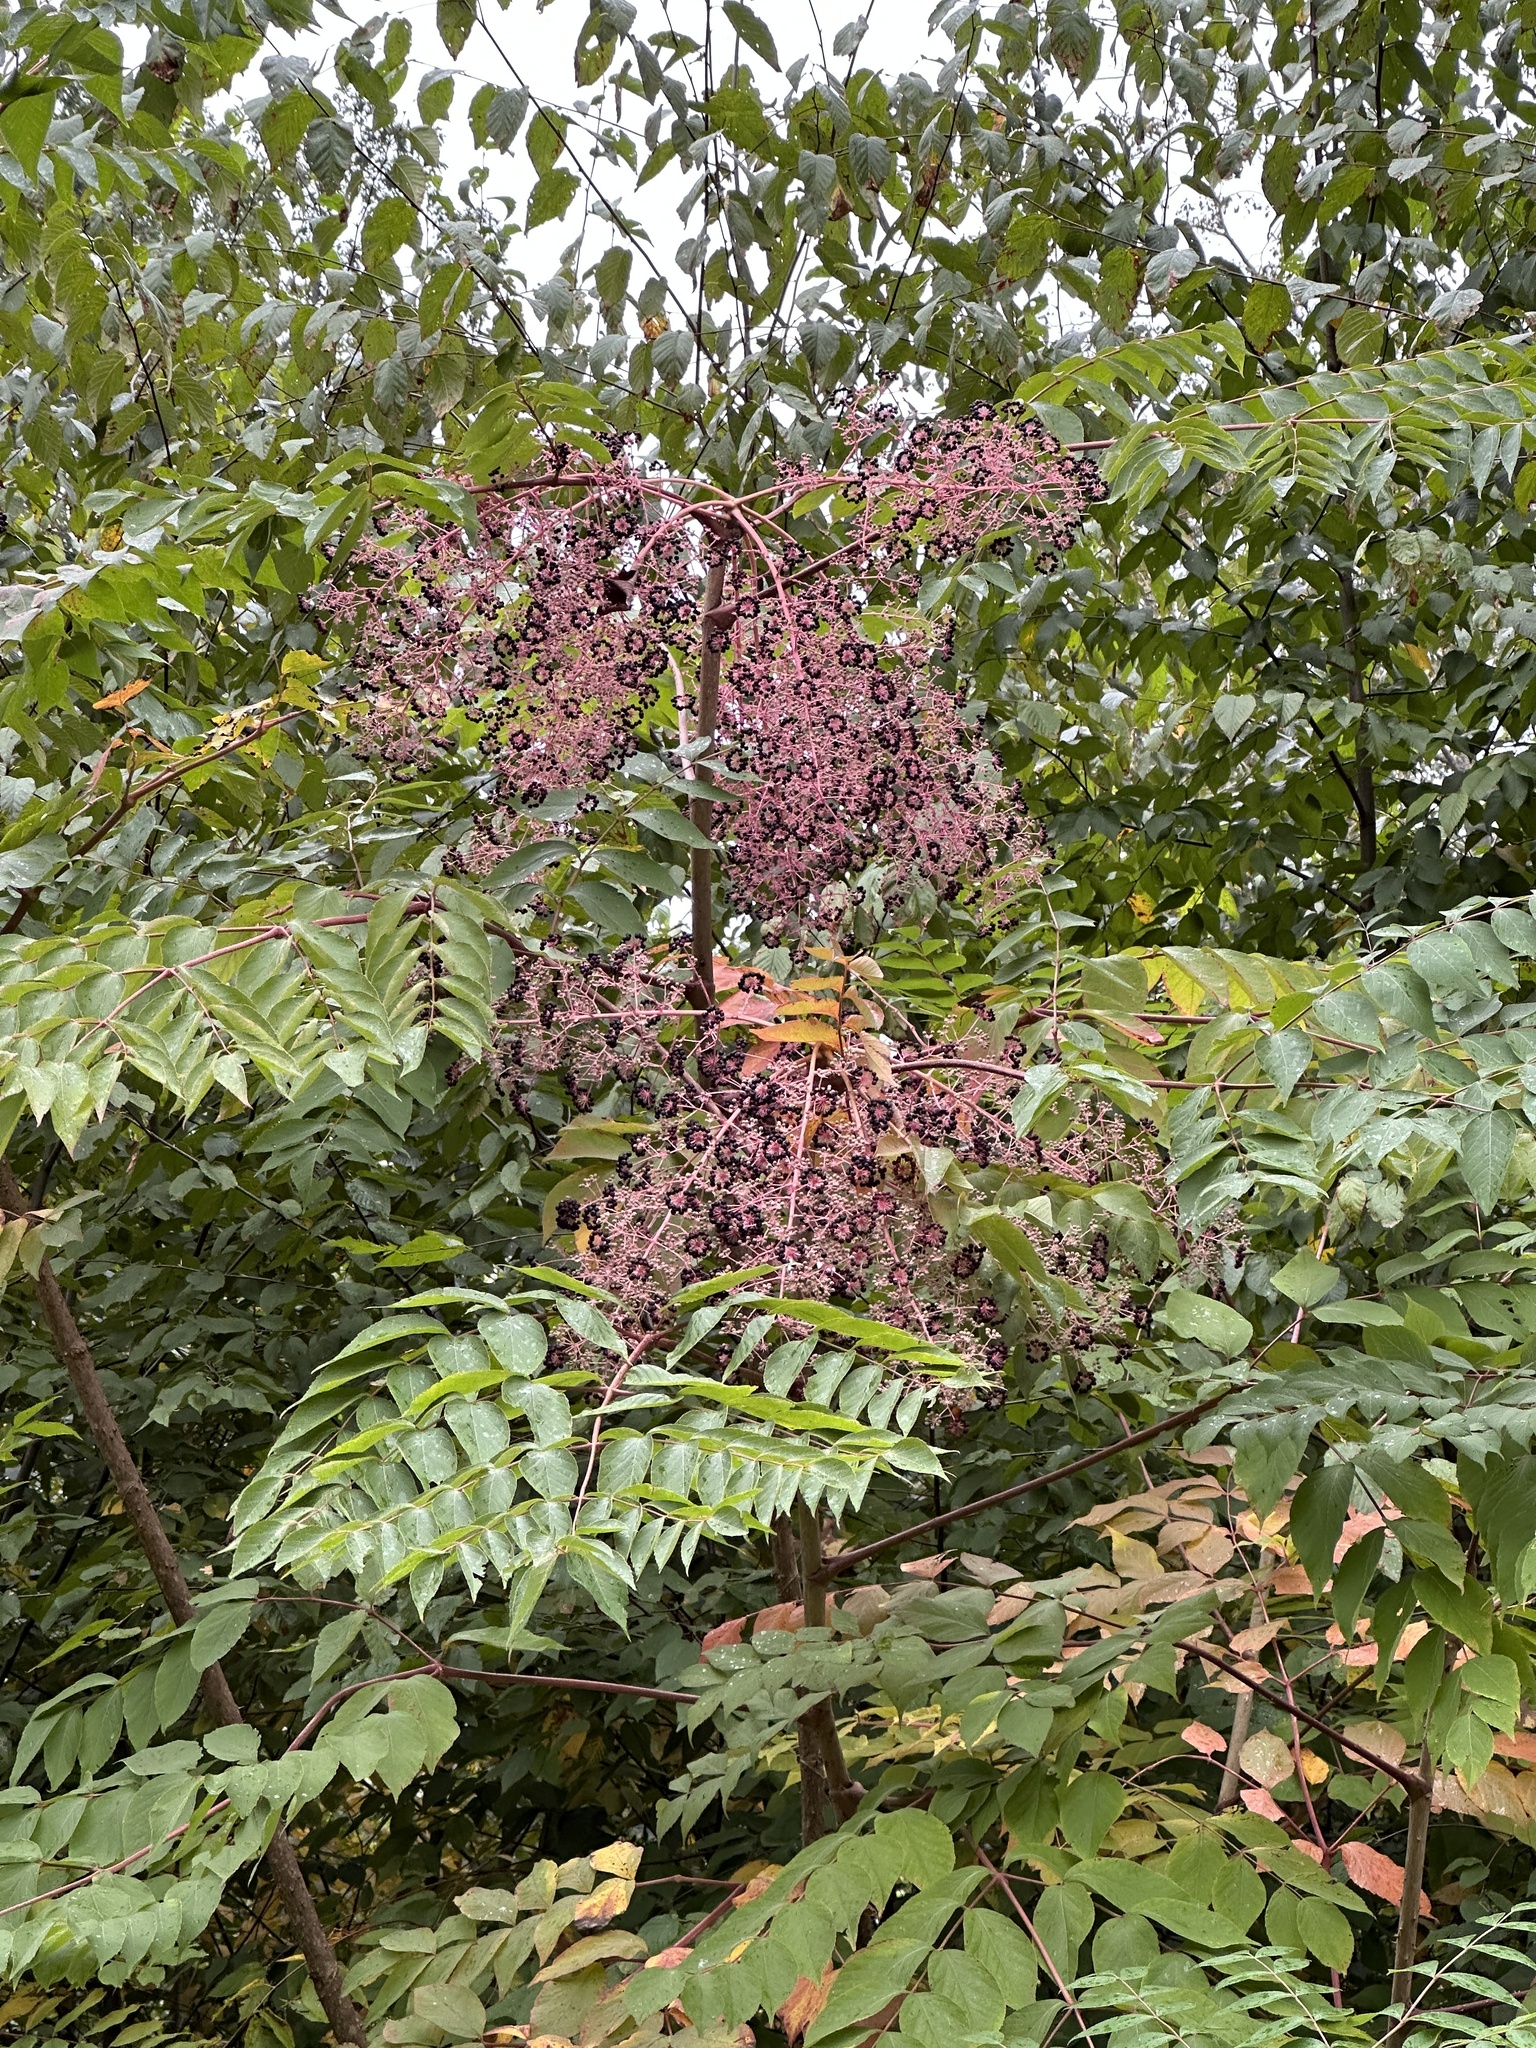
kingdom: Plantae
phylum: Tracheophyta
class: Magnoliopsida
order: Apiales
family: Araliaceae
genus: Aralia
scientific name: Aralia elata
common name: Japanese angelica-tree
